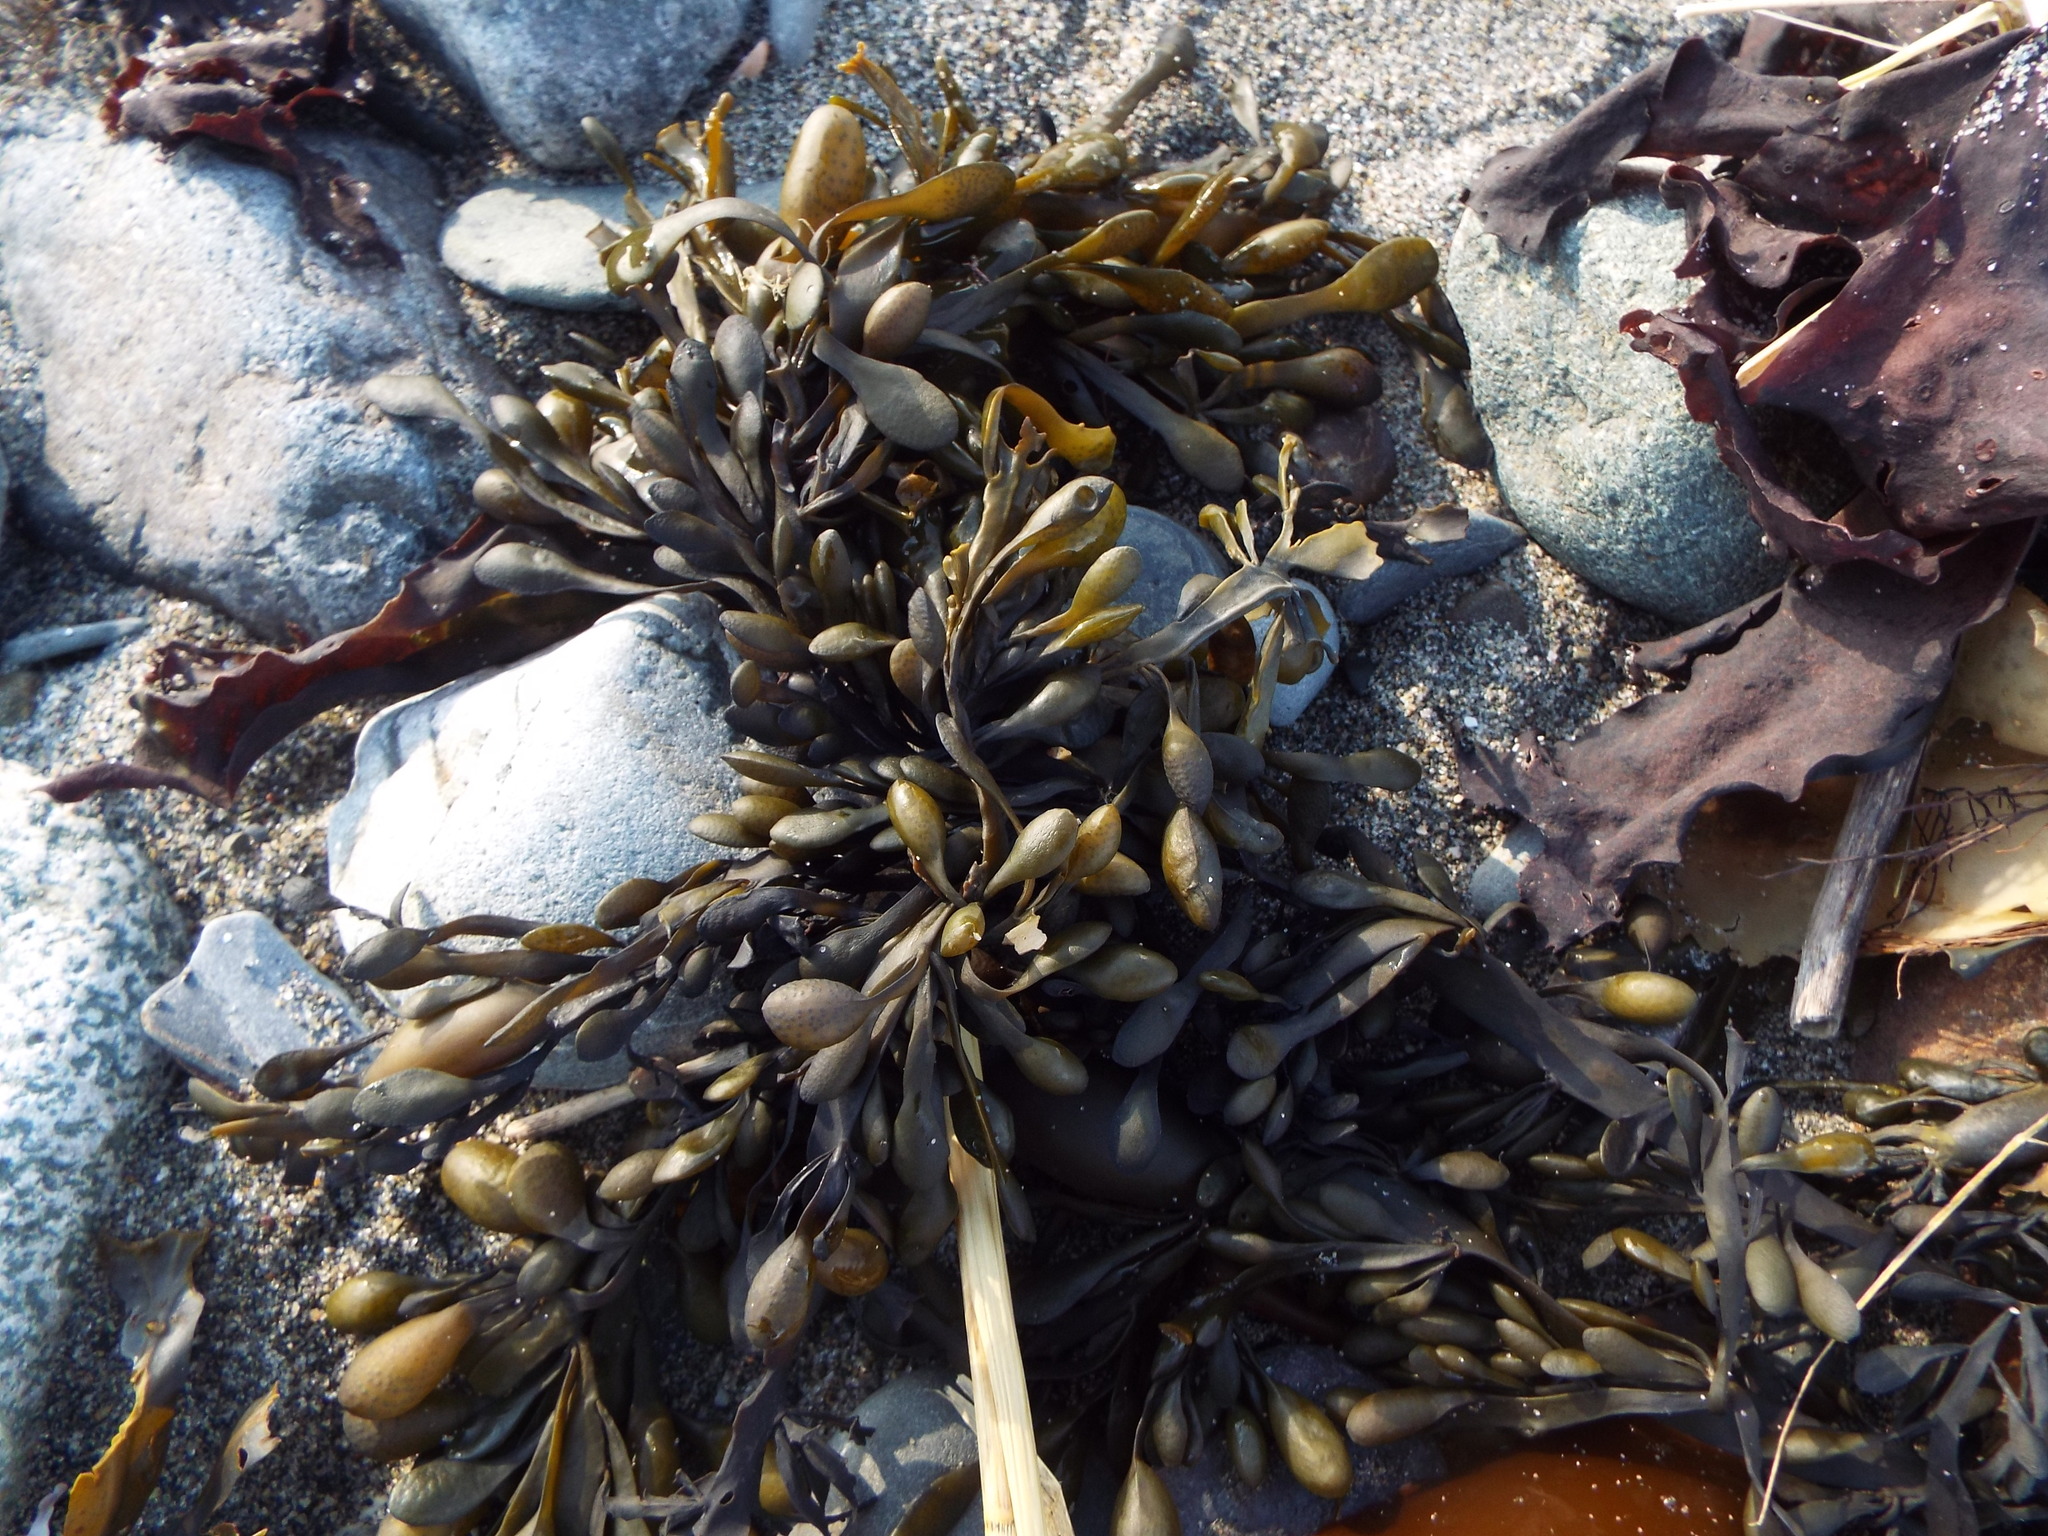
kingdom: Chromista
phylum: Ochrophyta
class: Phaeophyceae
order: Fucales
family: Fucaceae
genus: Ascophyllum
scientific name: Ascophyllum nodosum
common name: Knotted wrack
